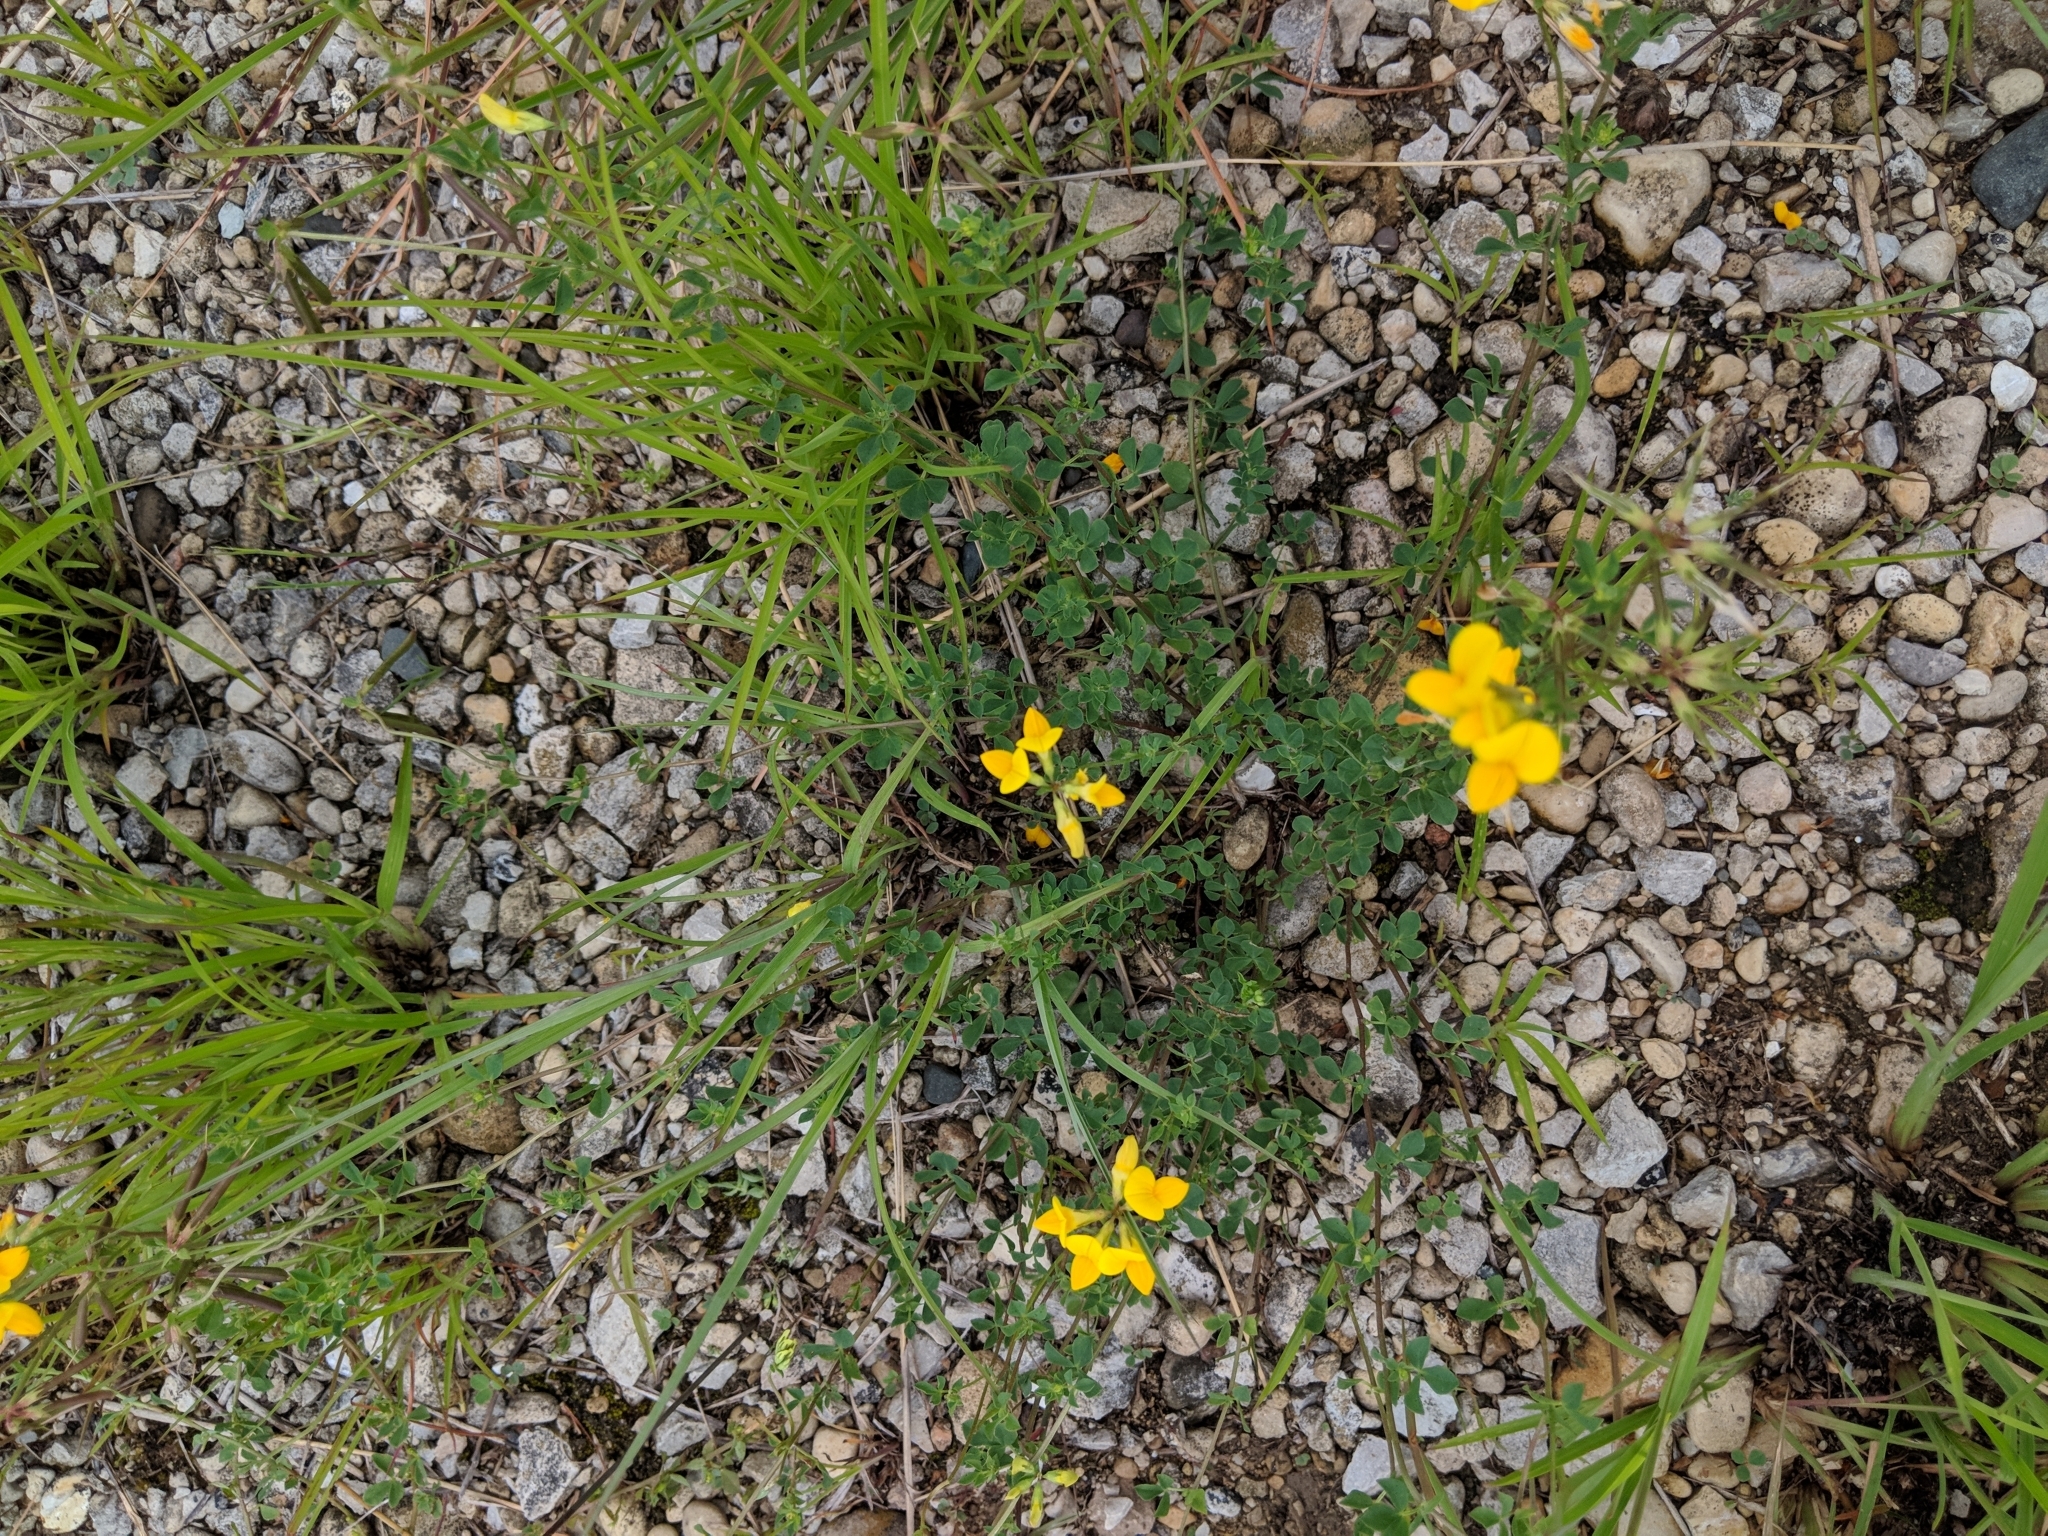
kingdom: Plantae
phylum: Tracheophyta
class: Magnoliopsida
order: Fabales
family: Fabaceae
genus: Lotus
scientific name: Lotus corniculatus
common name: Common bird's-foot-trefoil
